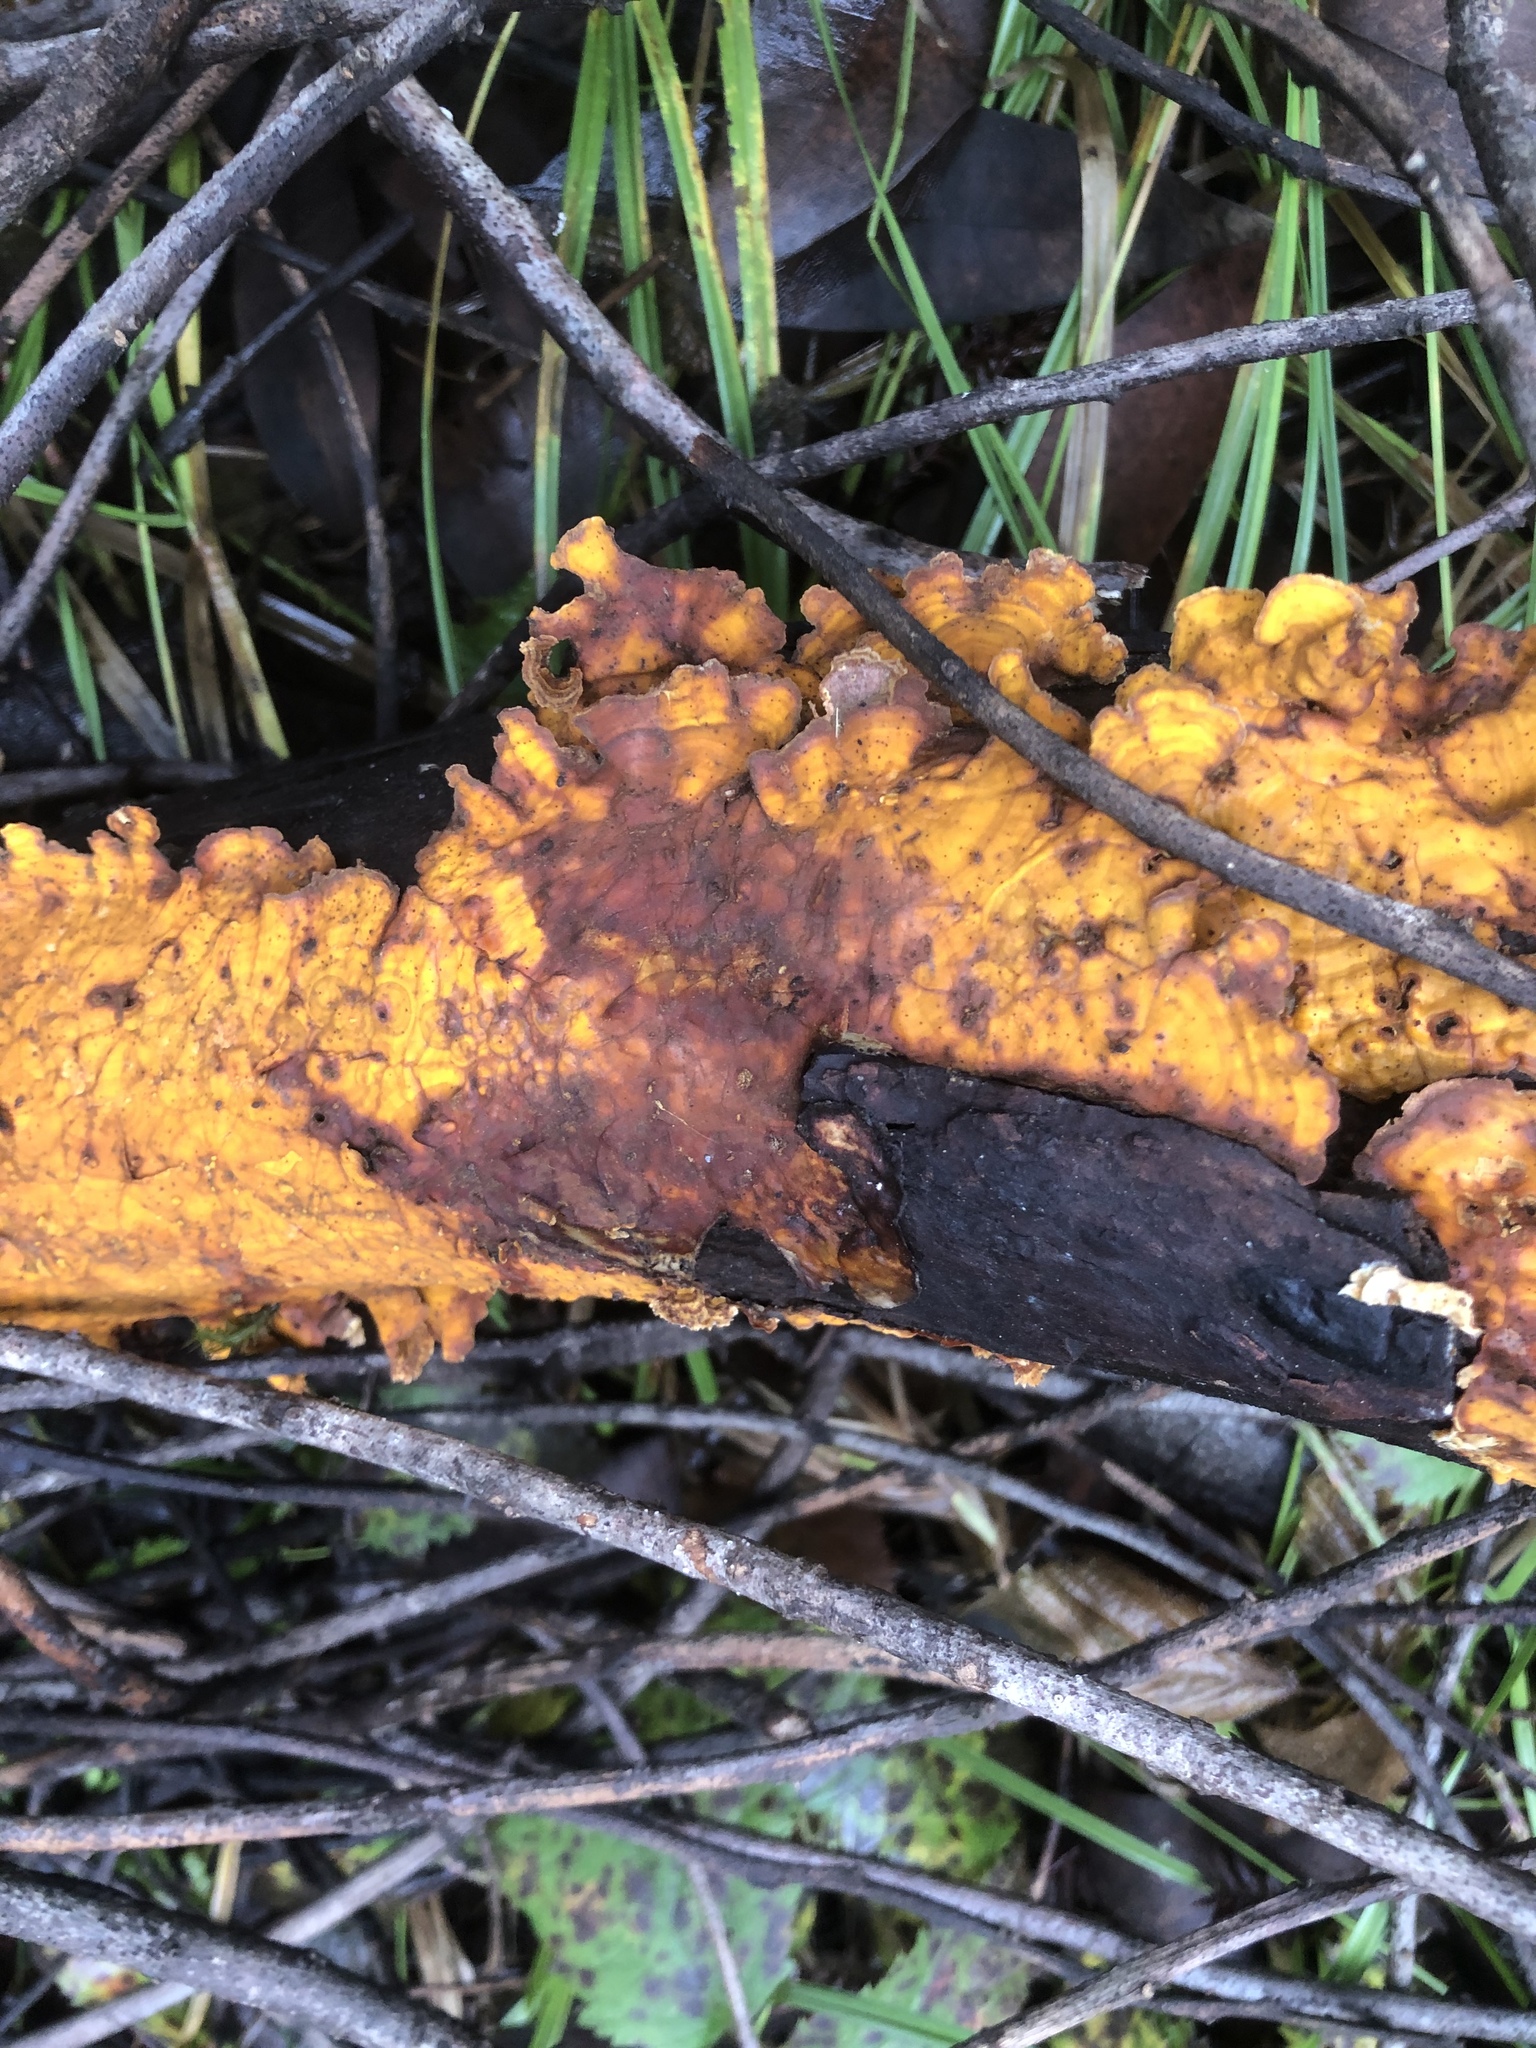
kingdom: Fungi
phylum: Basidiomycota
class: Agaricomycetes
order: Russulales
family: Stereaceae
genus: Stereum
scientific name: Stereum hirsutum
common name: Hairy curtain crust
